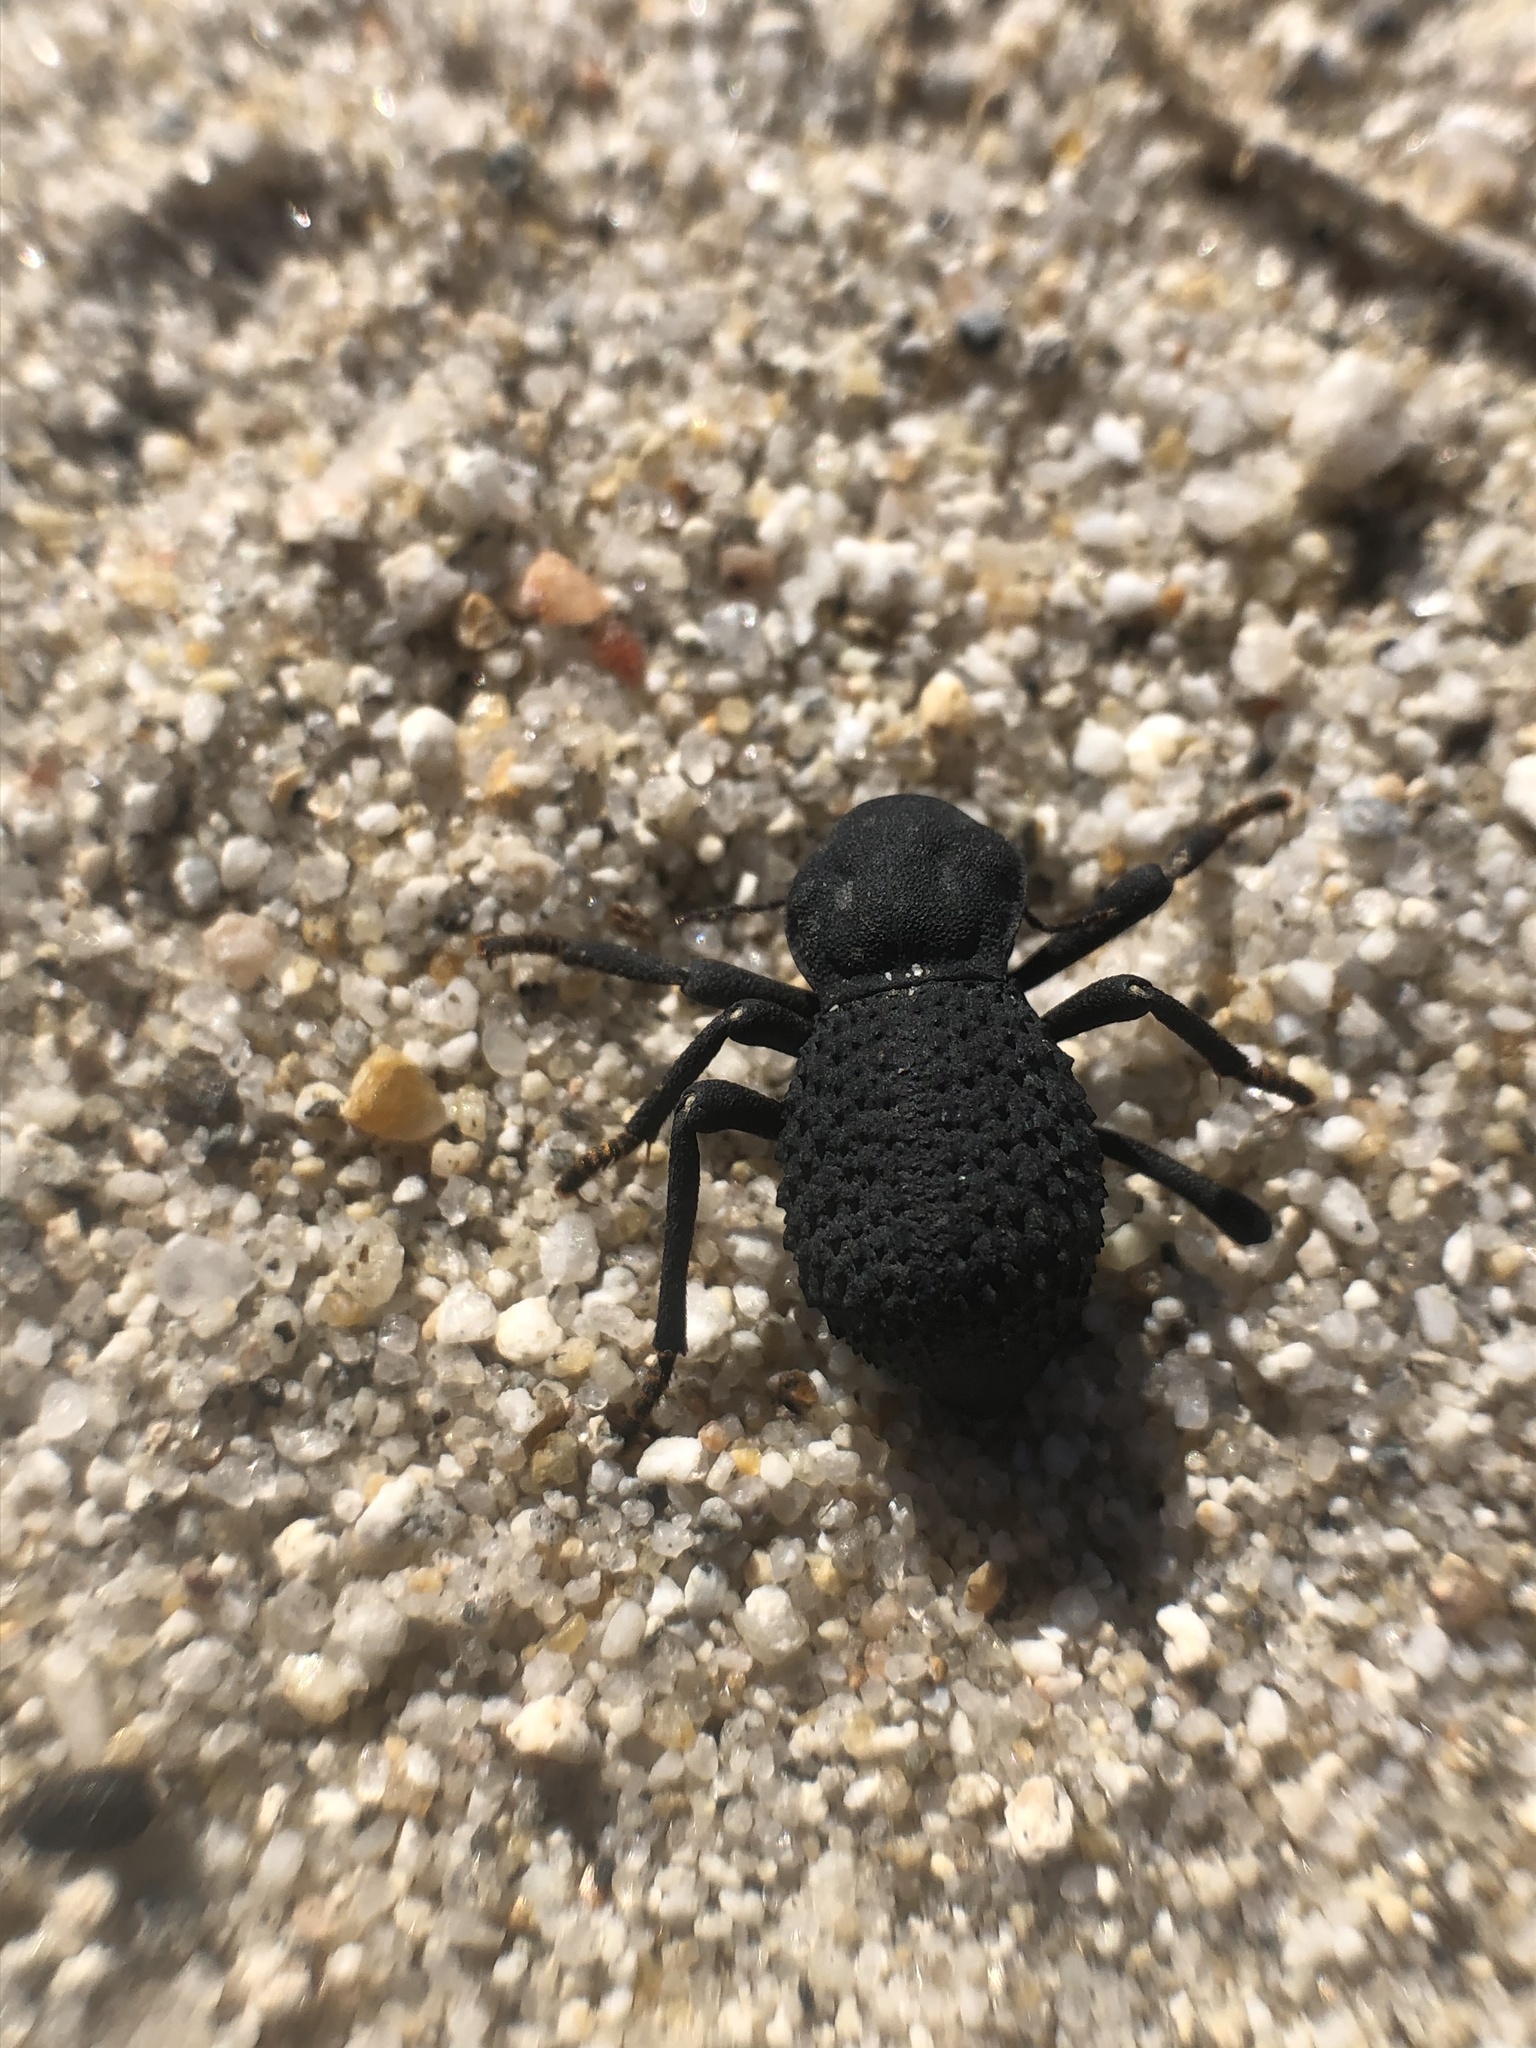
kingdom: Animalia
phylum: Arthropoda
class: Insecta
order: Coleoptera
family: Tenebrionidae
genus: Asbolus
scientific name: Asbolus verrucosus
